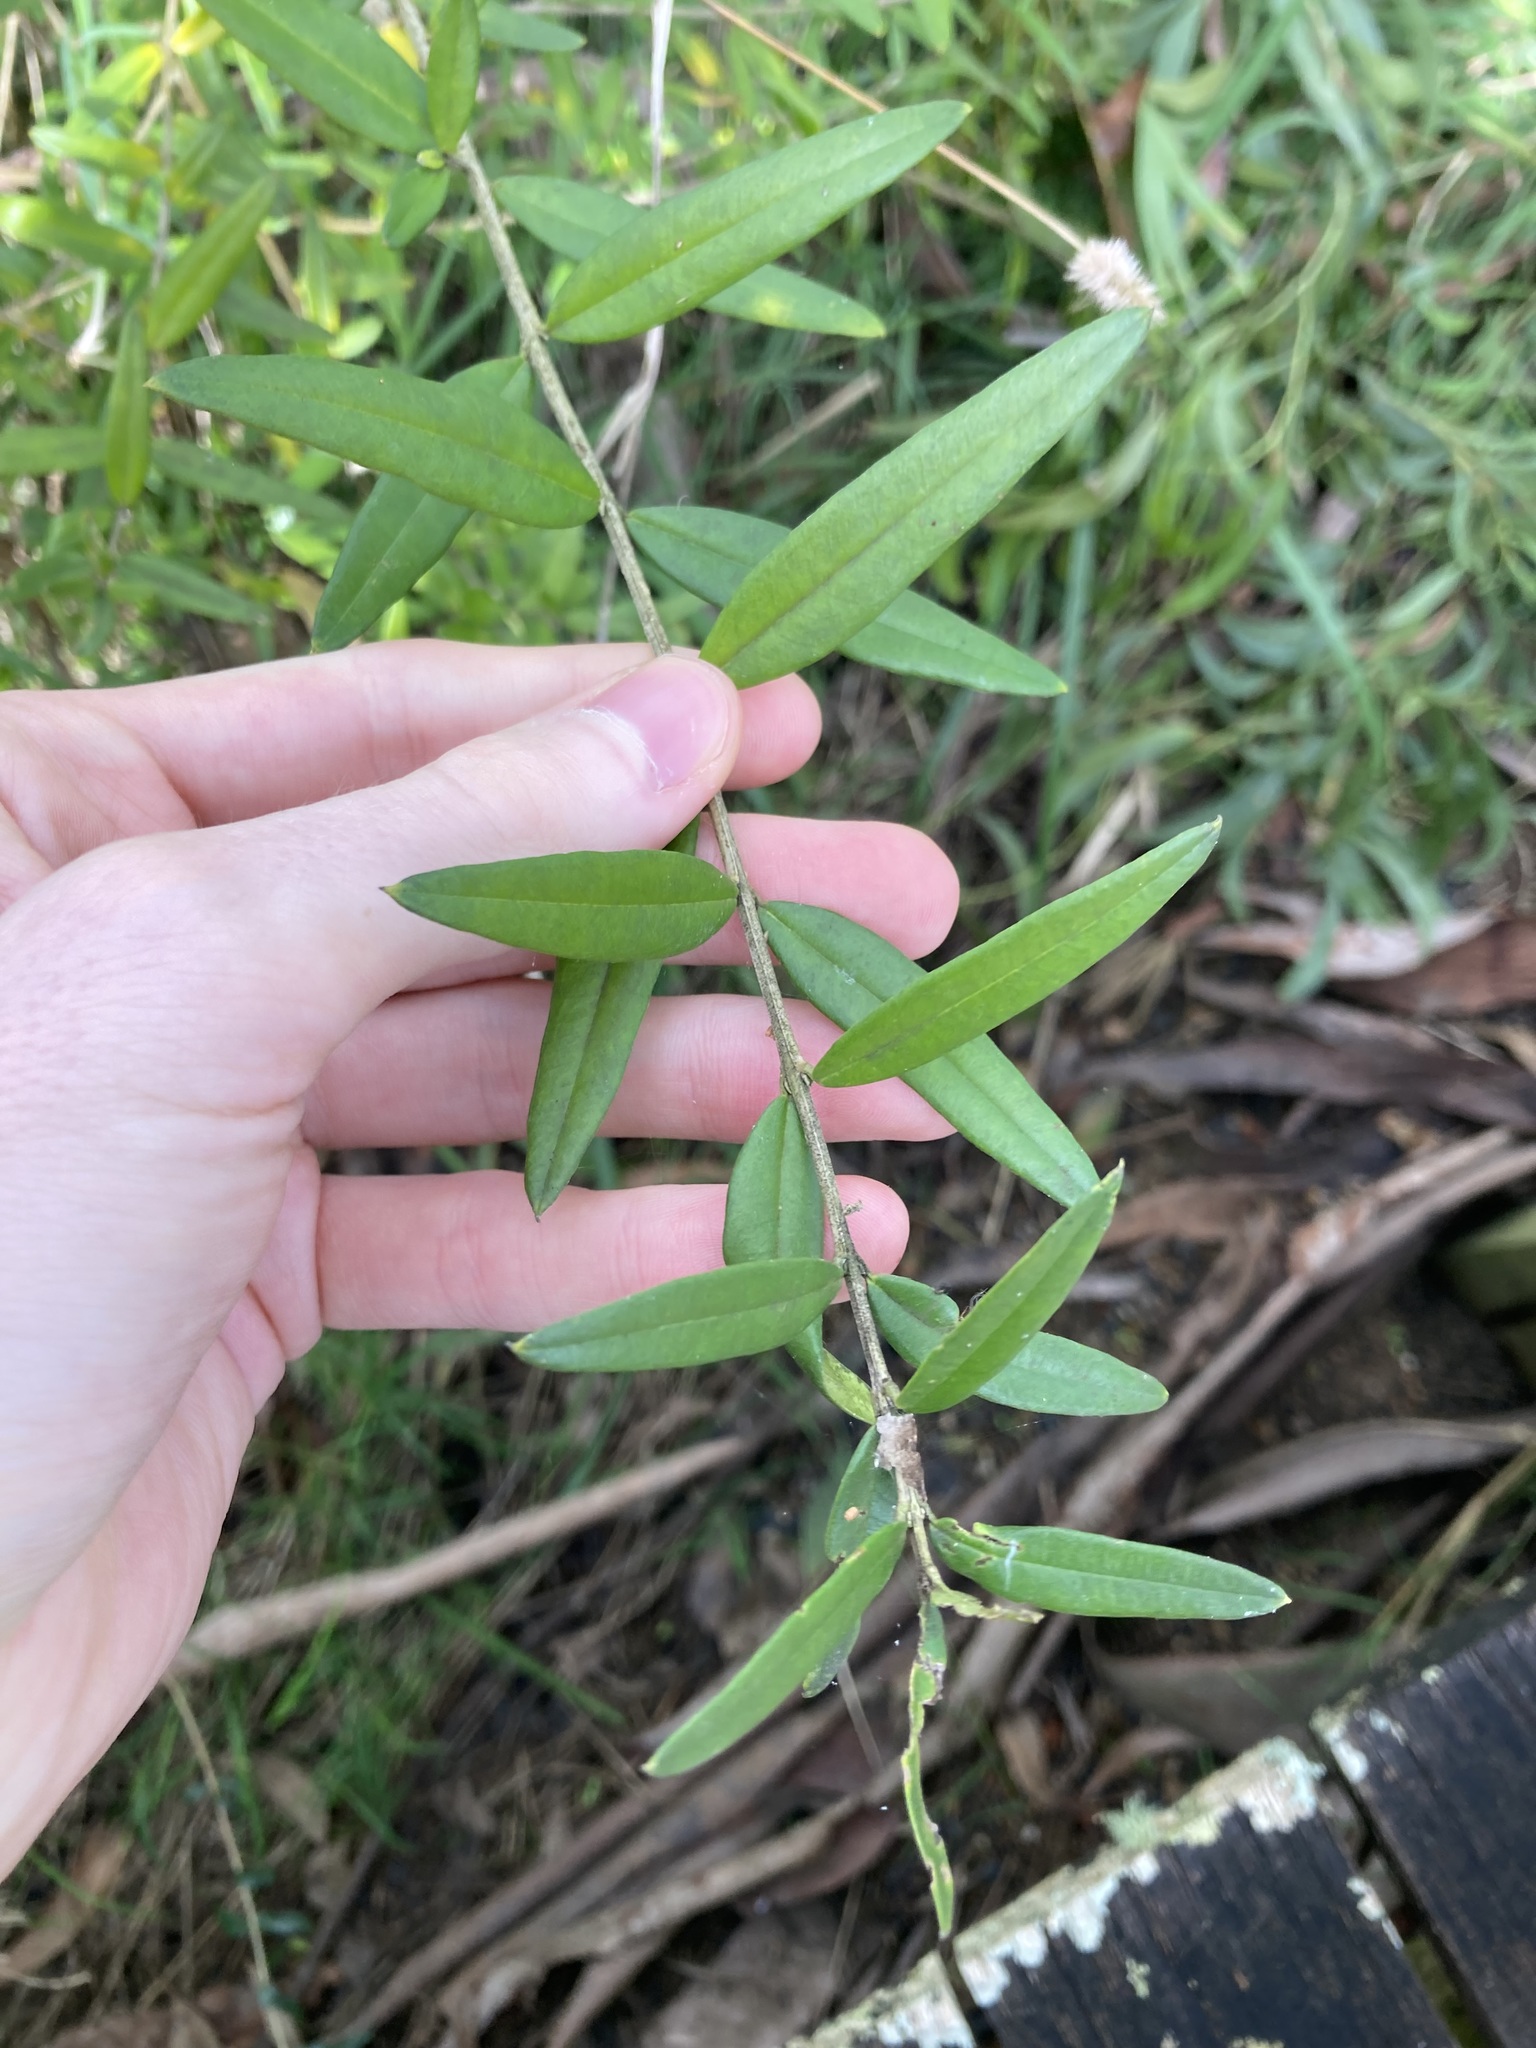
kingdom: Plantae
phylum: Tracheophyta
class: Magnoliopsida
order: Lamiales
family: Oleaceae
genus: Olea
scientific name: Olea europaea
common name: Olive
